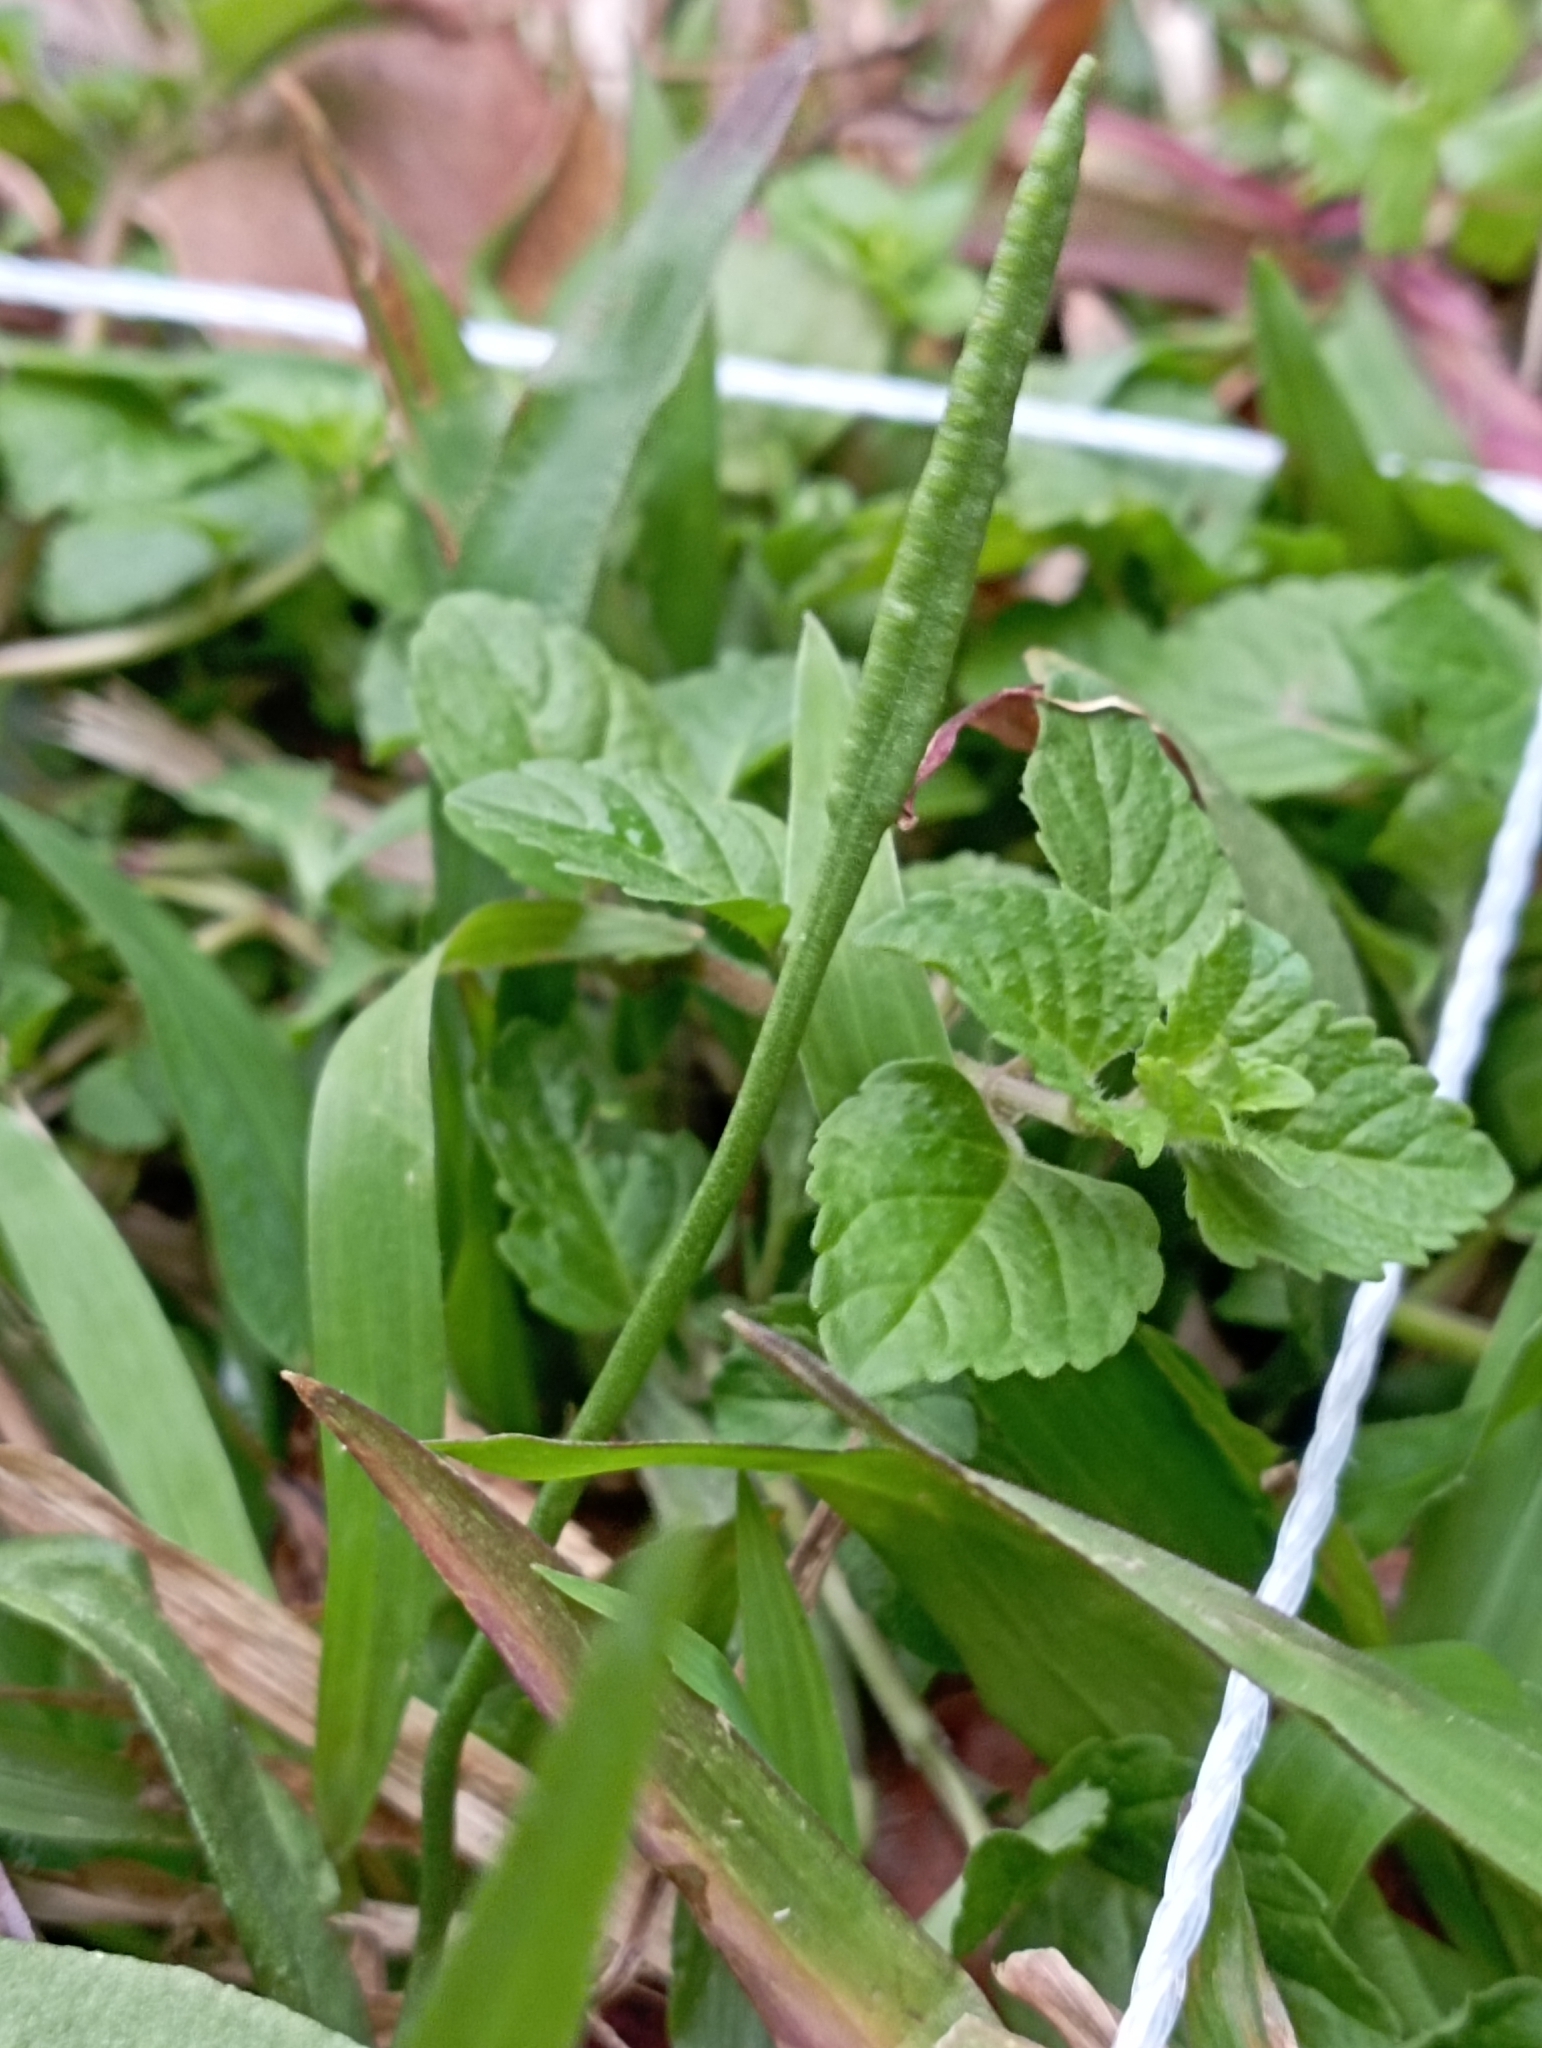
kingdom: Plantae
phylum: Tracheophyta
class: Polypodiopsida
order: Ophioglossales
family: Ophioglossaceae
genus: Ophioglossum
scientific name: Ophioglossum petiolatum
